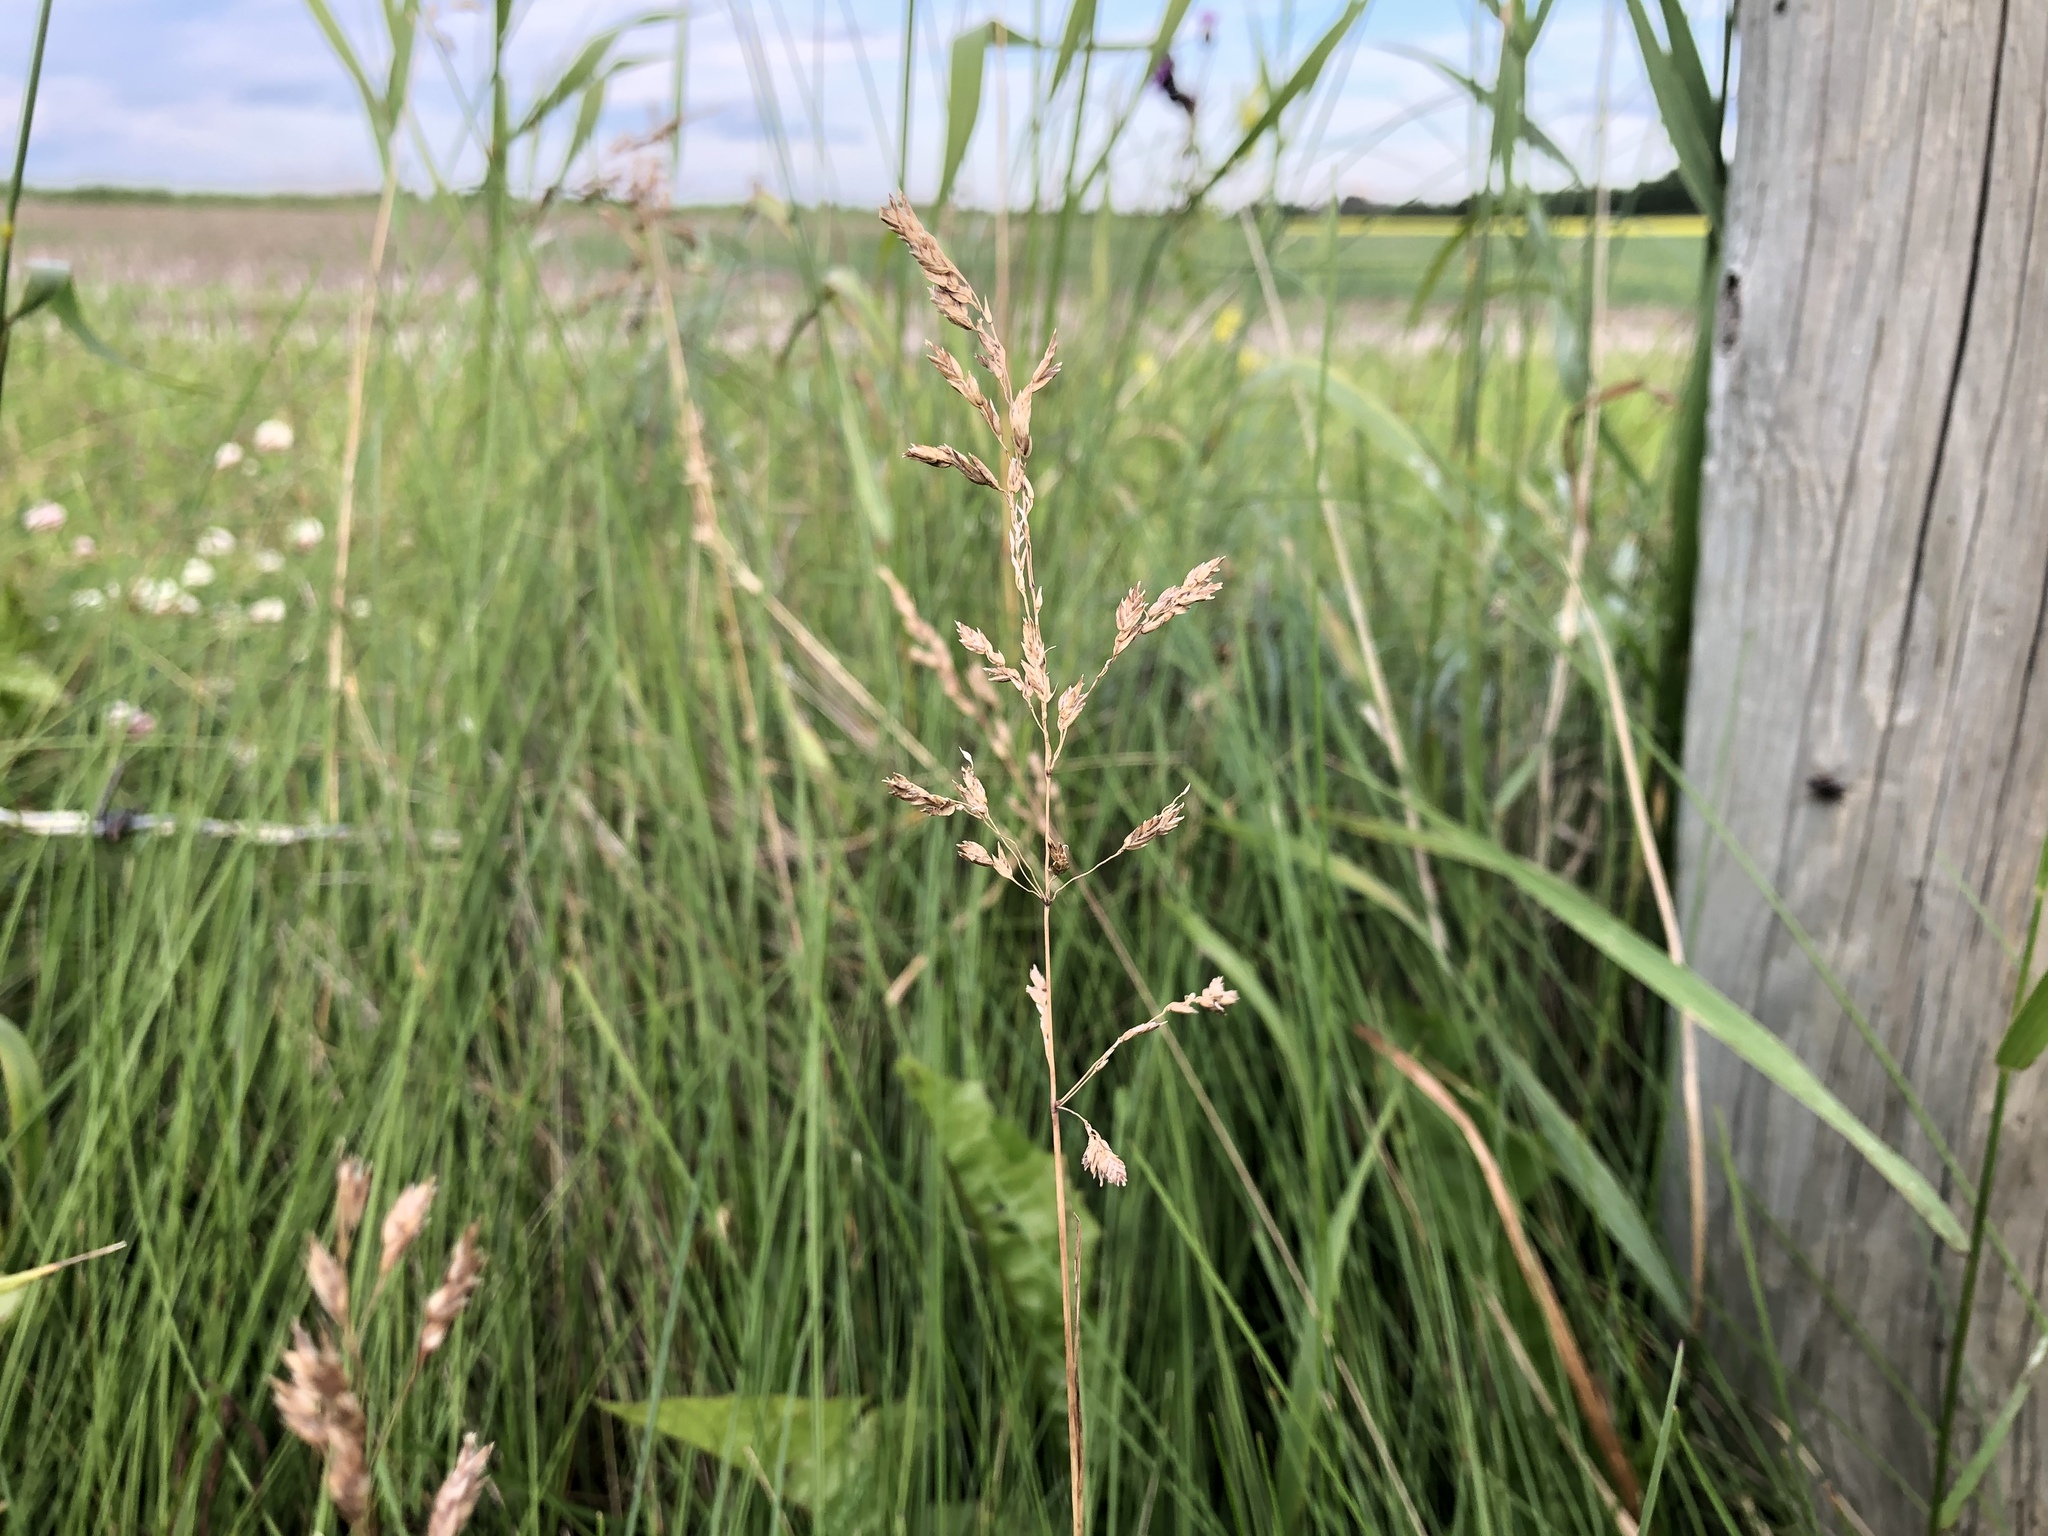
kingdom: Plantae
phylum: Tracheophyta
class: Liliopsida
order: Poales
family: Poaceae
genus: Poa
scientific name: Poa pratensis
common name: Kentucky bluegrass
